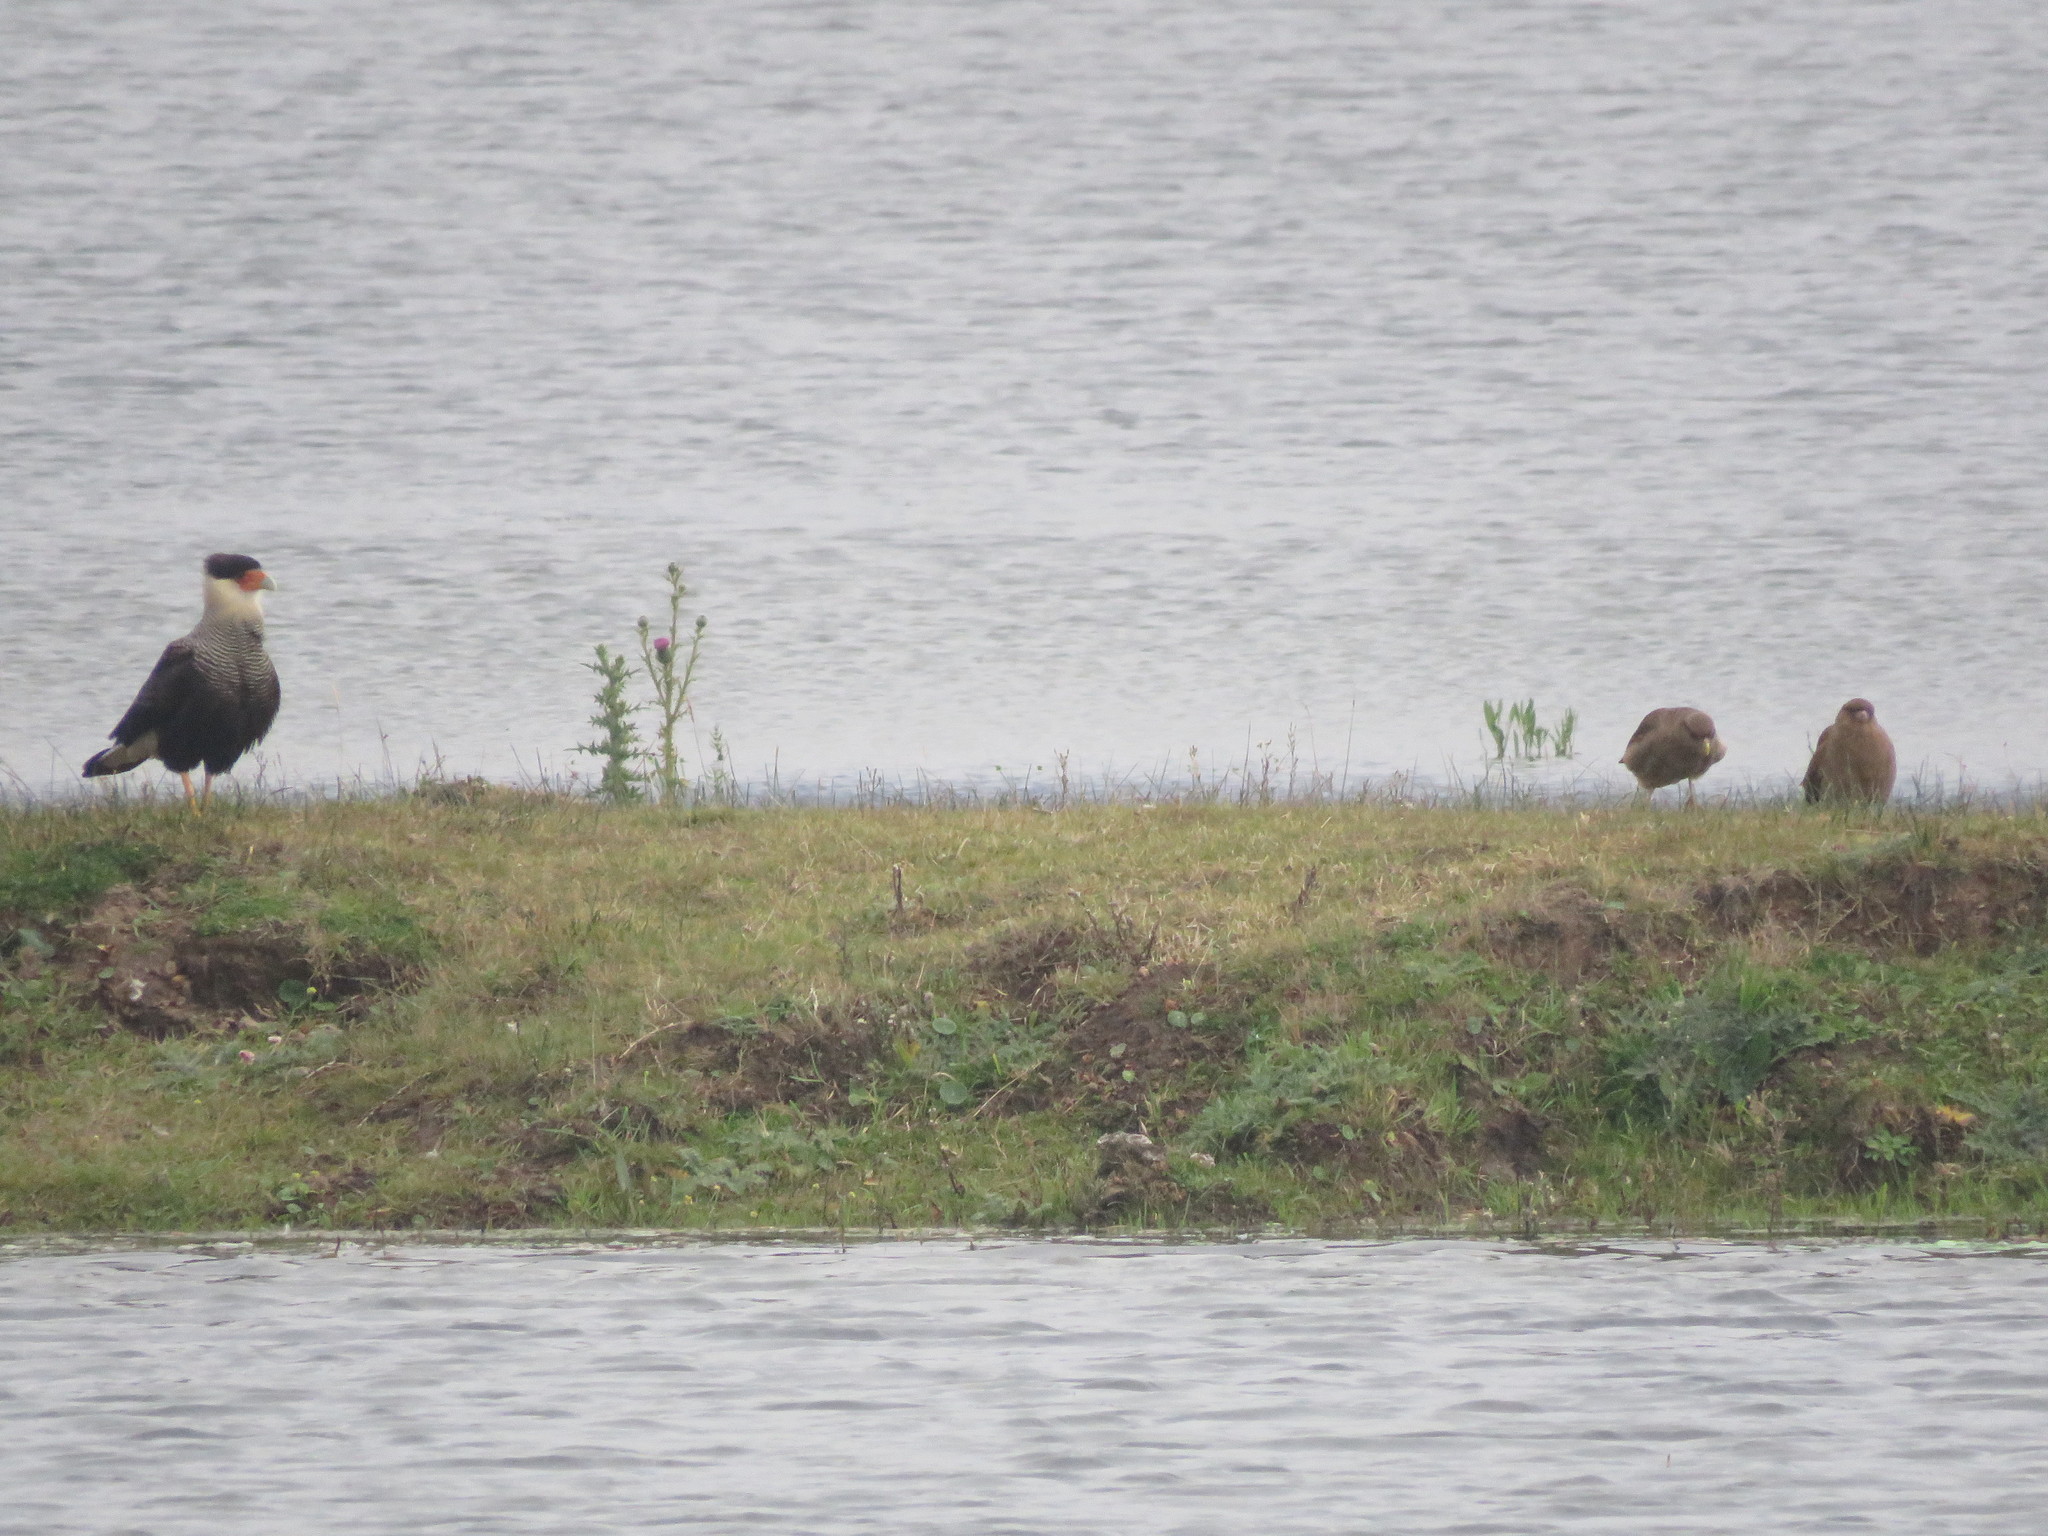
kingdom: Animalia
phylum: Chordata
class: Aves
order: Falconiformes
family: Falconidae
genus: Caracara
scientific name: Caracara plancus
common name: Southern caracara
